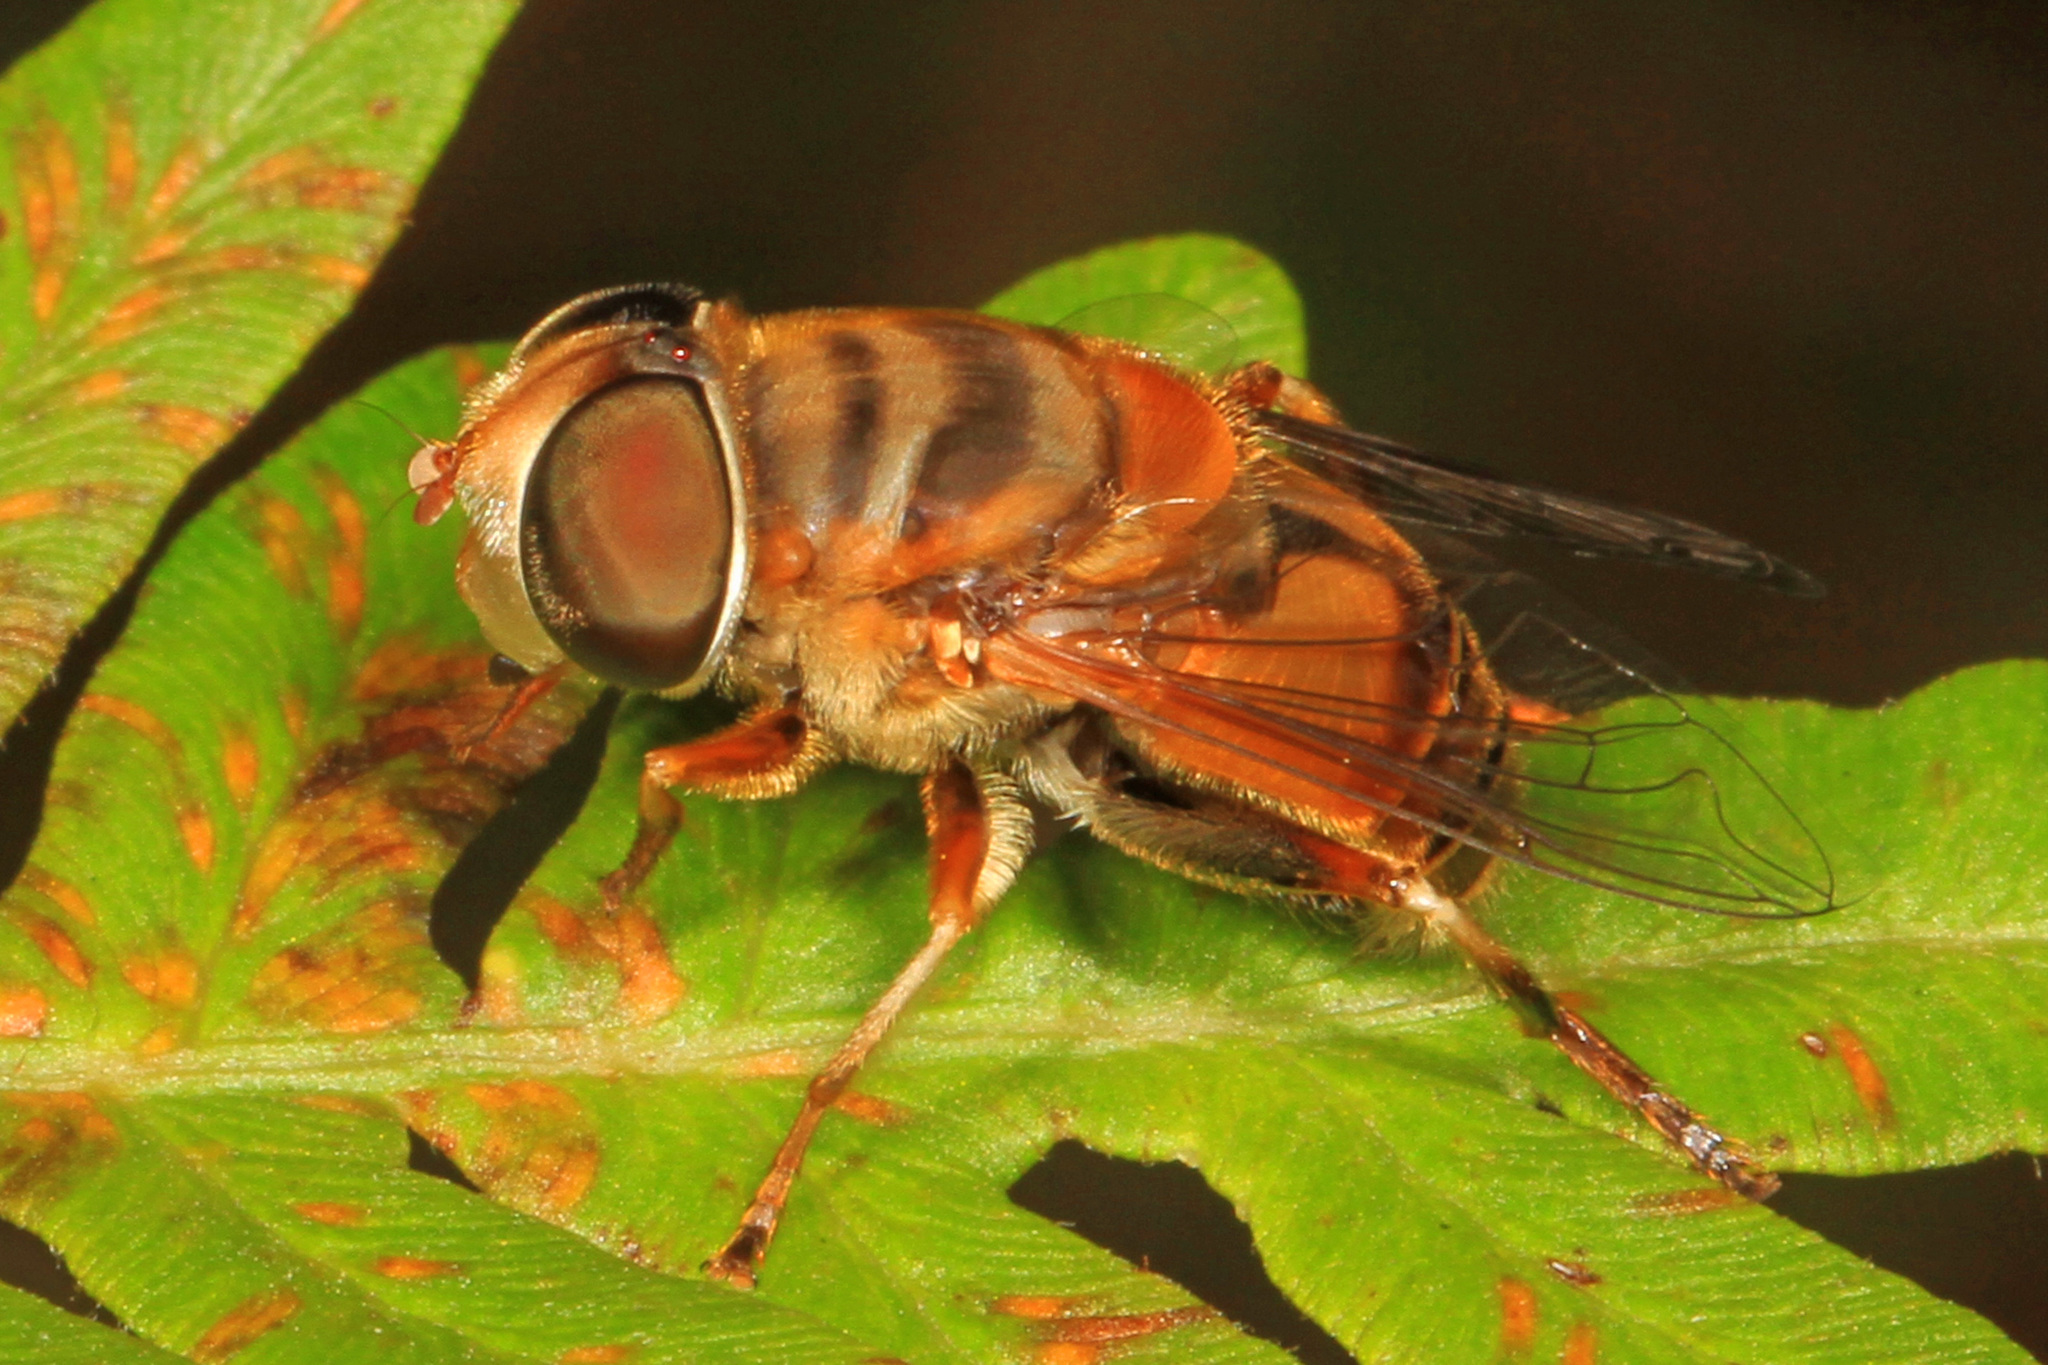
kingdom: Animalia
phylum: Arthropoda
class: Insecta
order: Diptera
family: Syrphidae
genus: Palpada
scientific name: Palpada vinetorum
